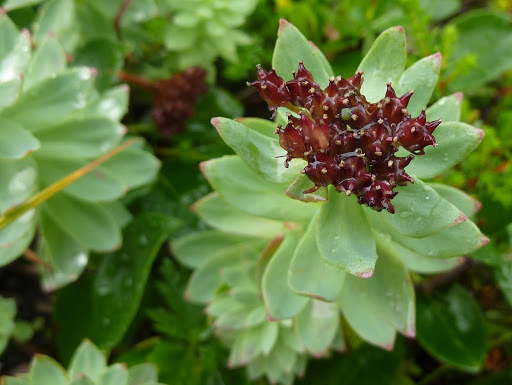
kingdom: Plantae
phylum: Tracheophyta
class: Magnoliopsida
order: Saxifragales
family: Crassulaceae
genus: Rhodiola
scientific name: Rhodiola integrifolia
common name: Western roseroot
